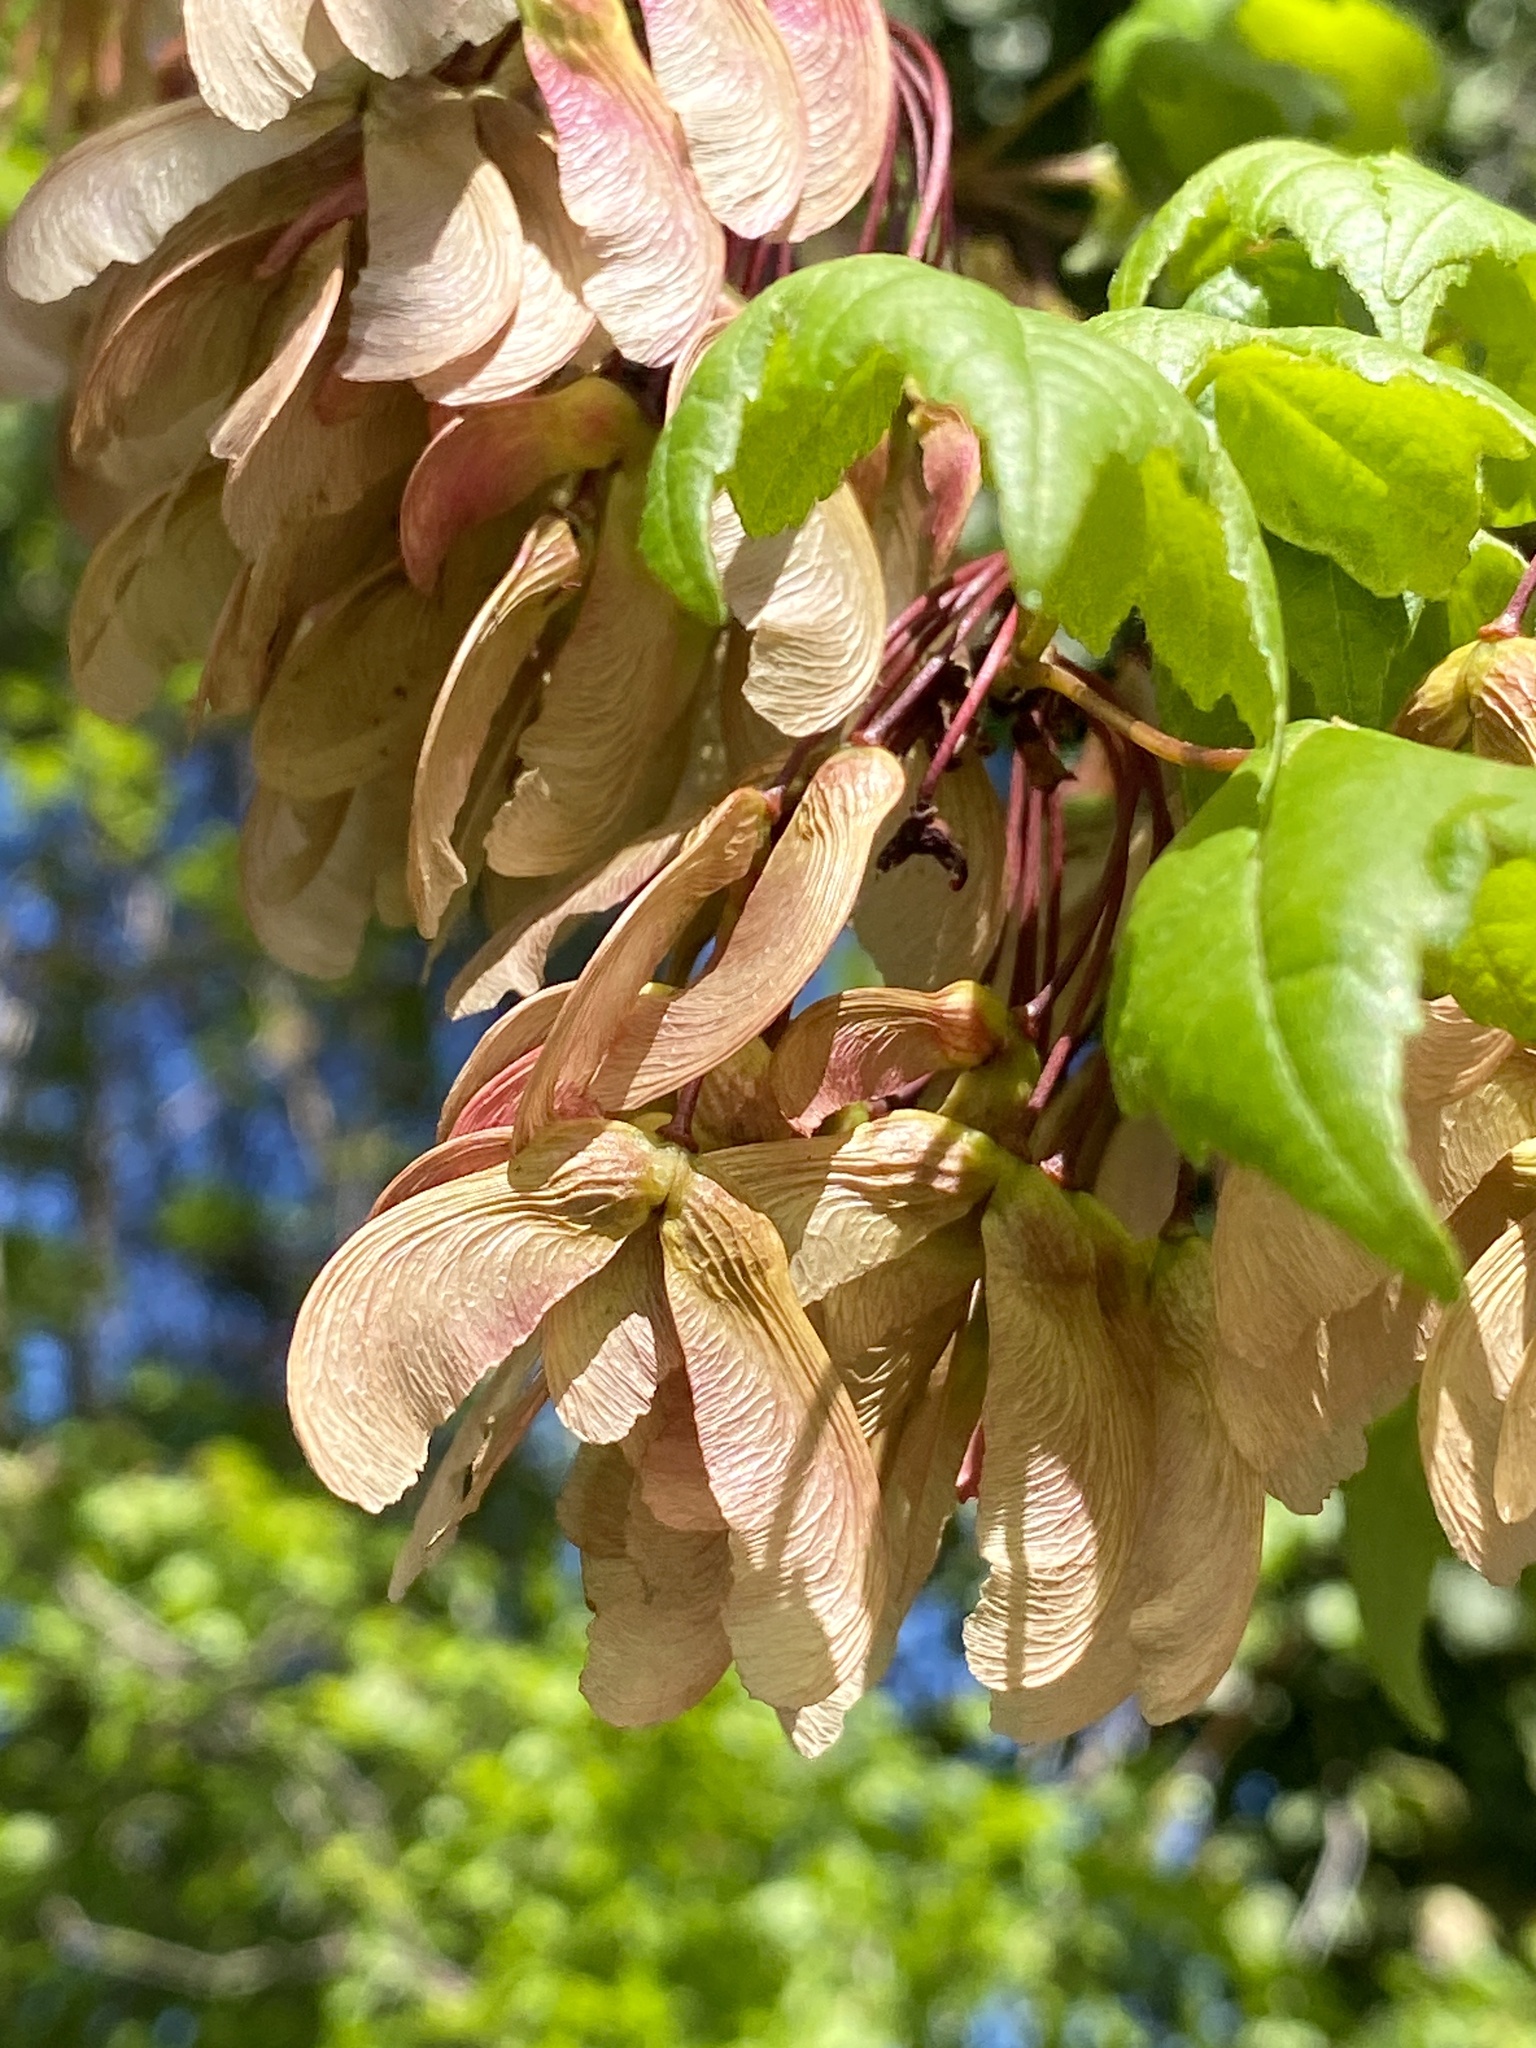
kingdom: Plantae
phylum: Tracheophyta
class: Magnoliopsida
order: Sapindales
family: Sapindaceae
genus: Acer
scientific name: Acer rubrum
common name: Red maple
